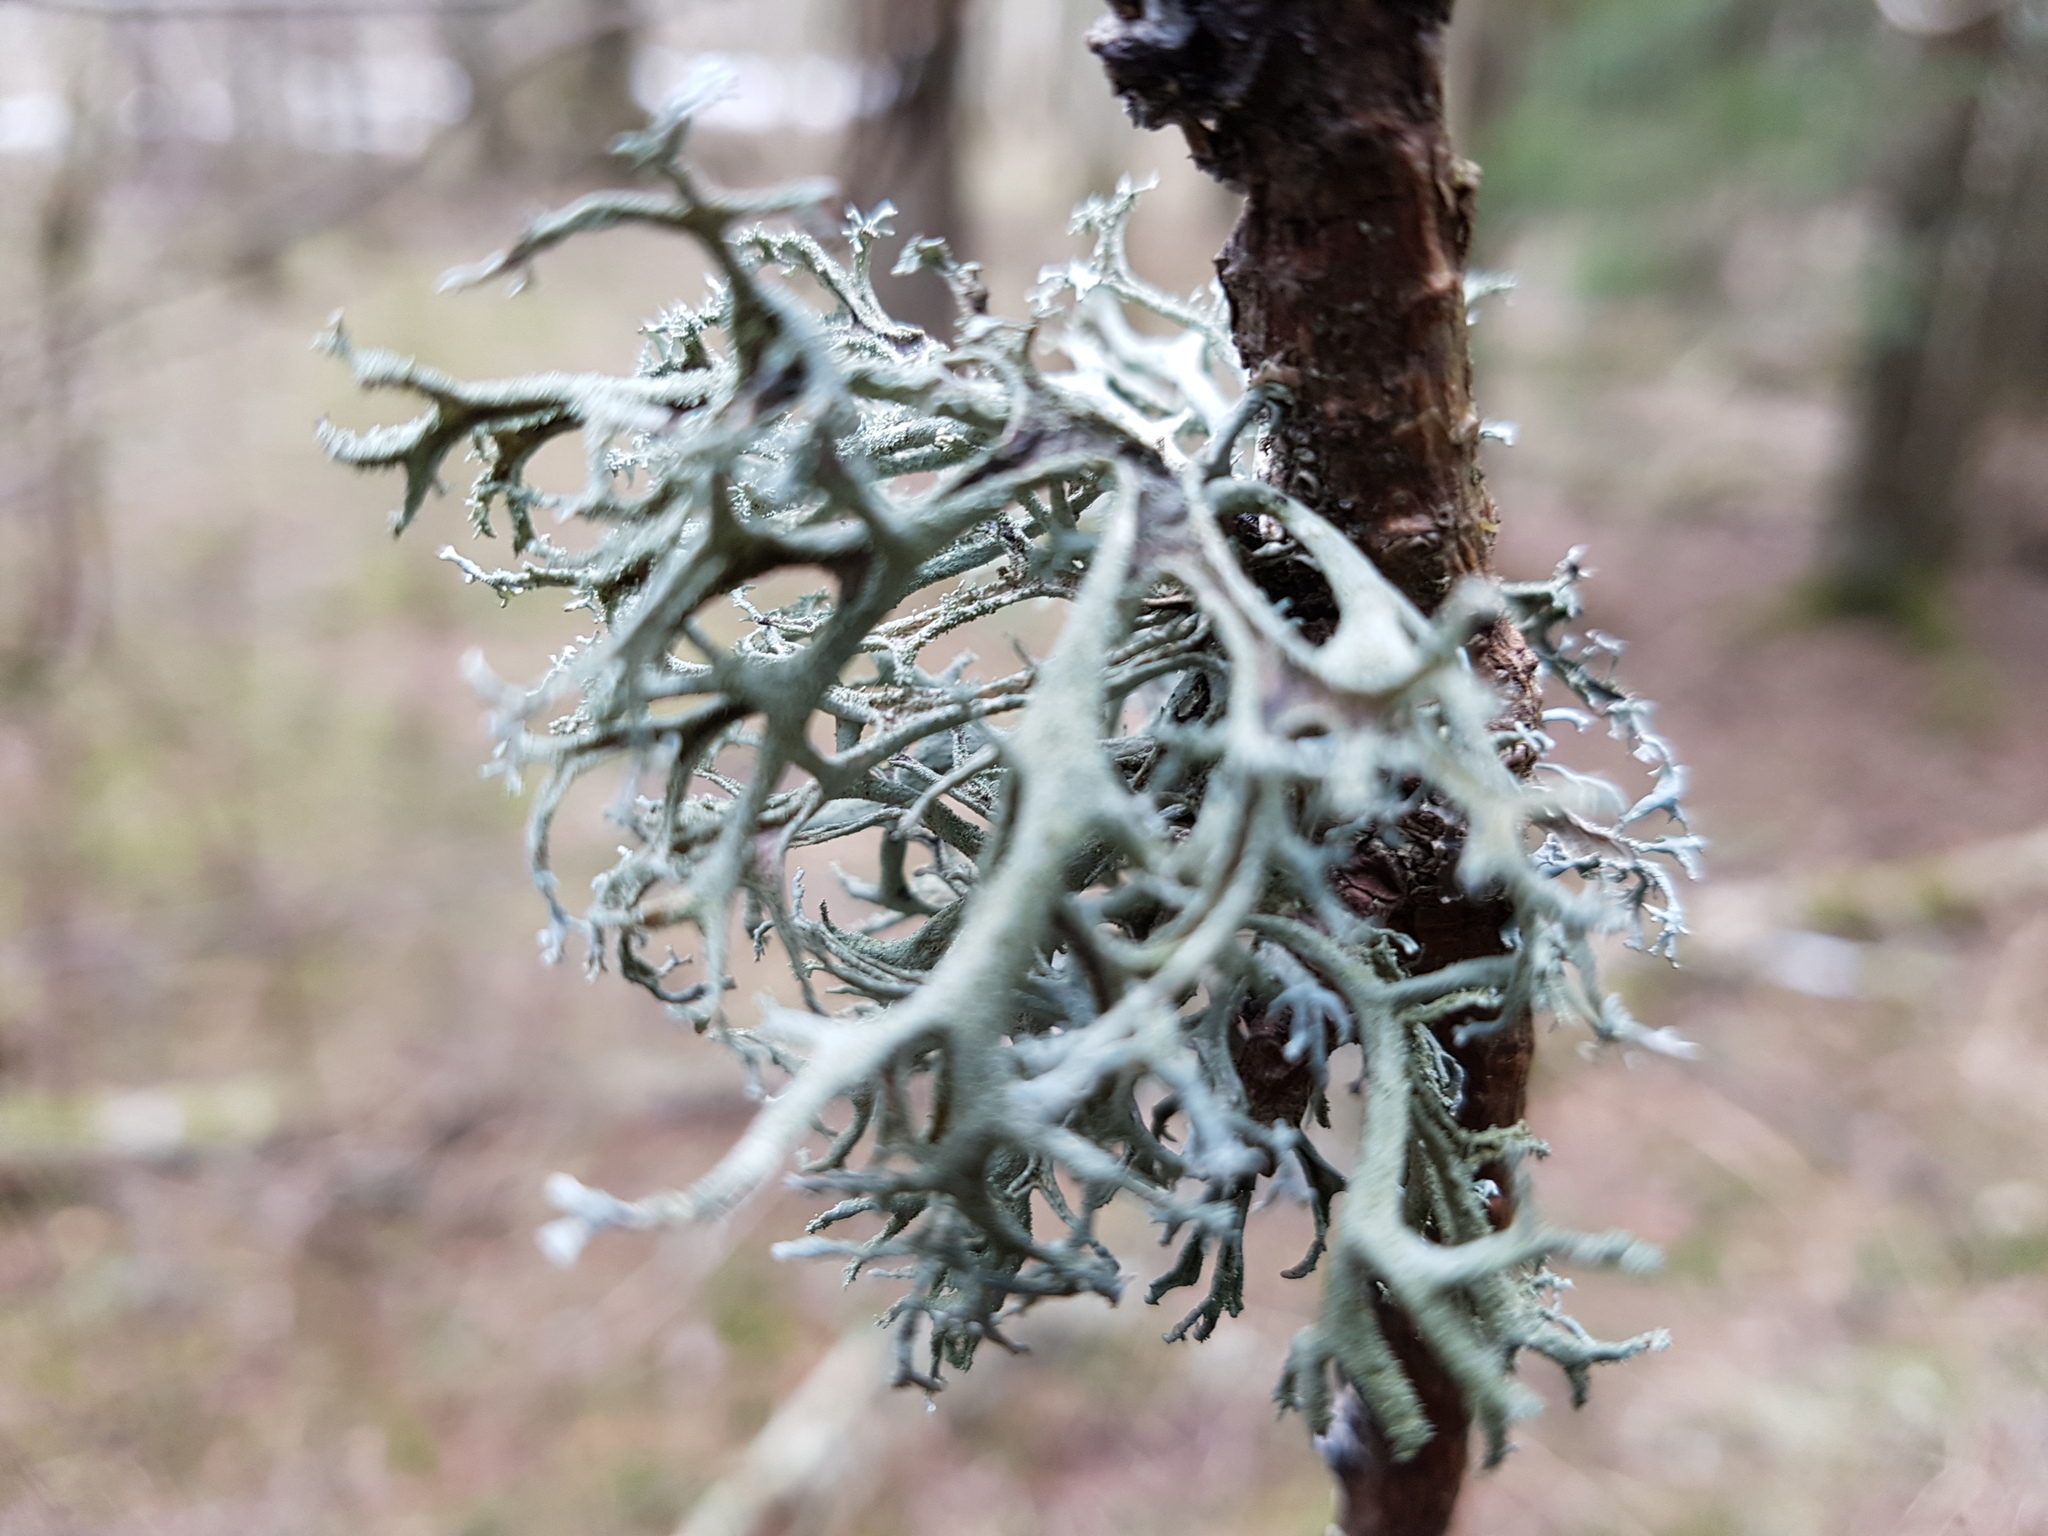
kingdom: Fungi
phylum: Ascomycota
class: Lecanoromycetes
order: Lecanorales
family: Parmeliaceae
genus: Pseudevernia
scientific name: Pseudevernia furfuracea
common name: Tree moss
